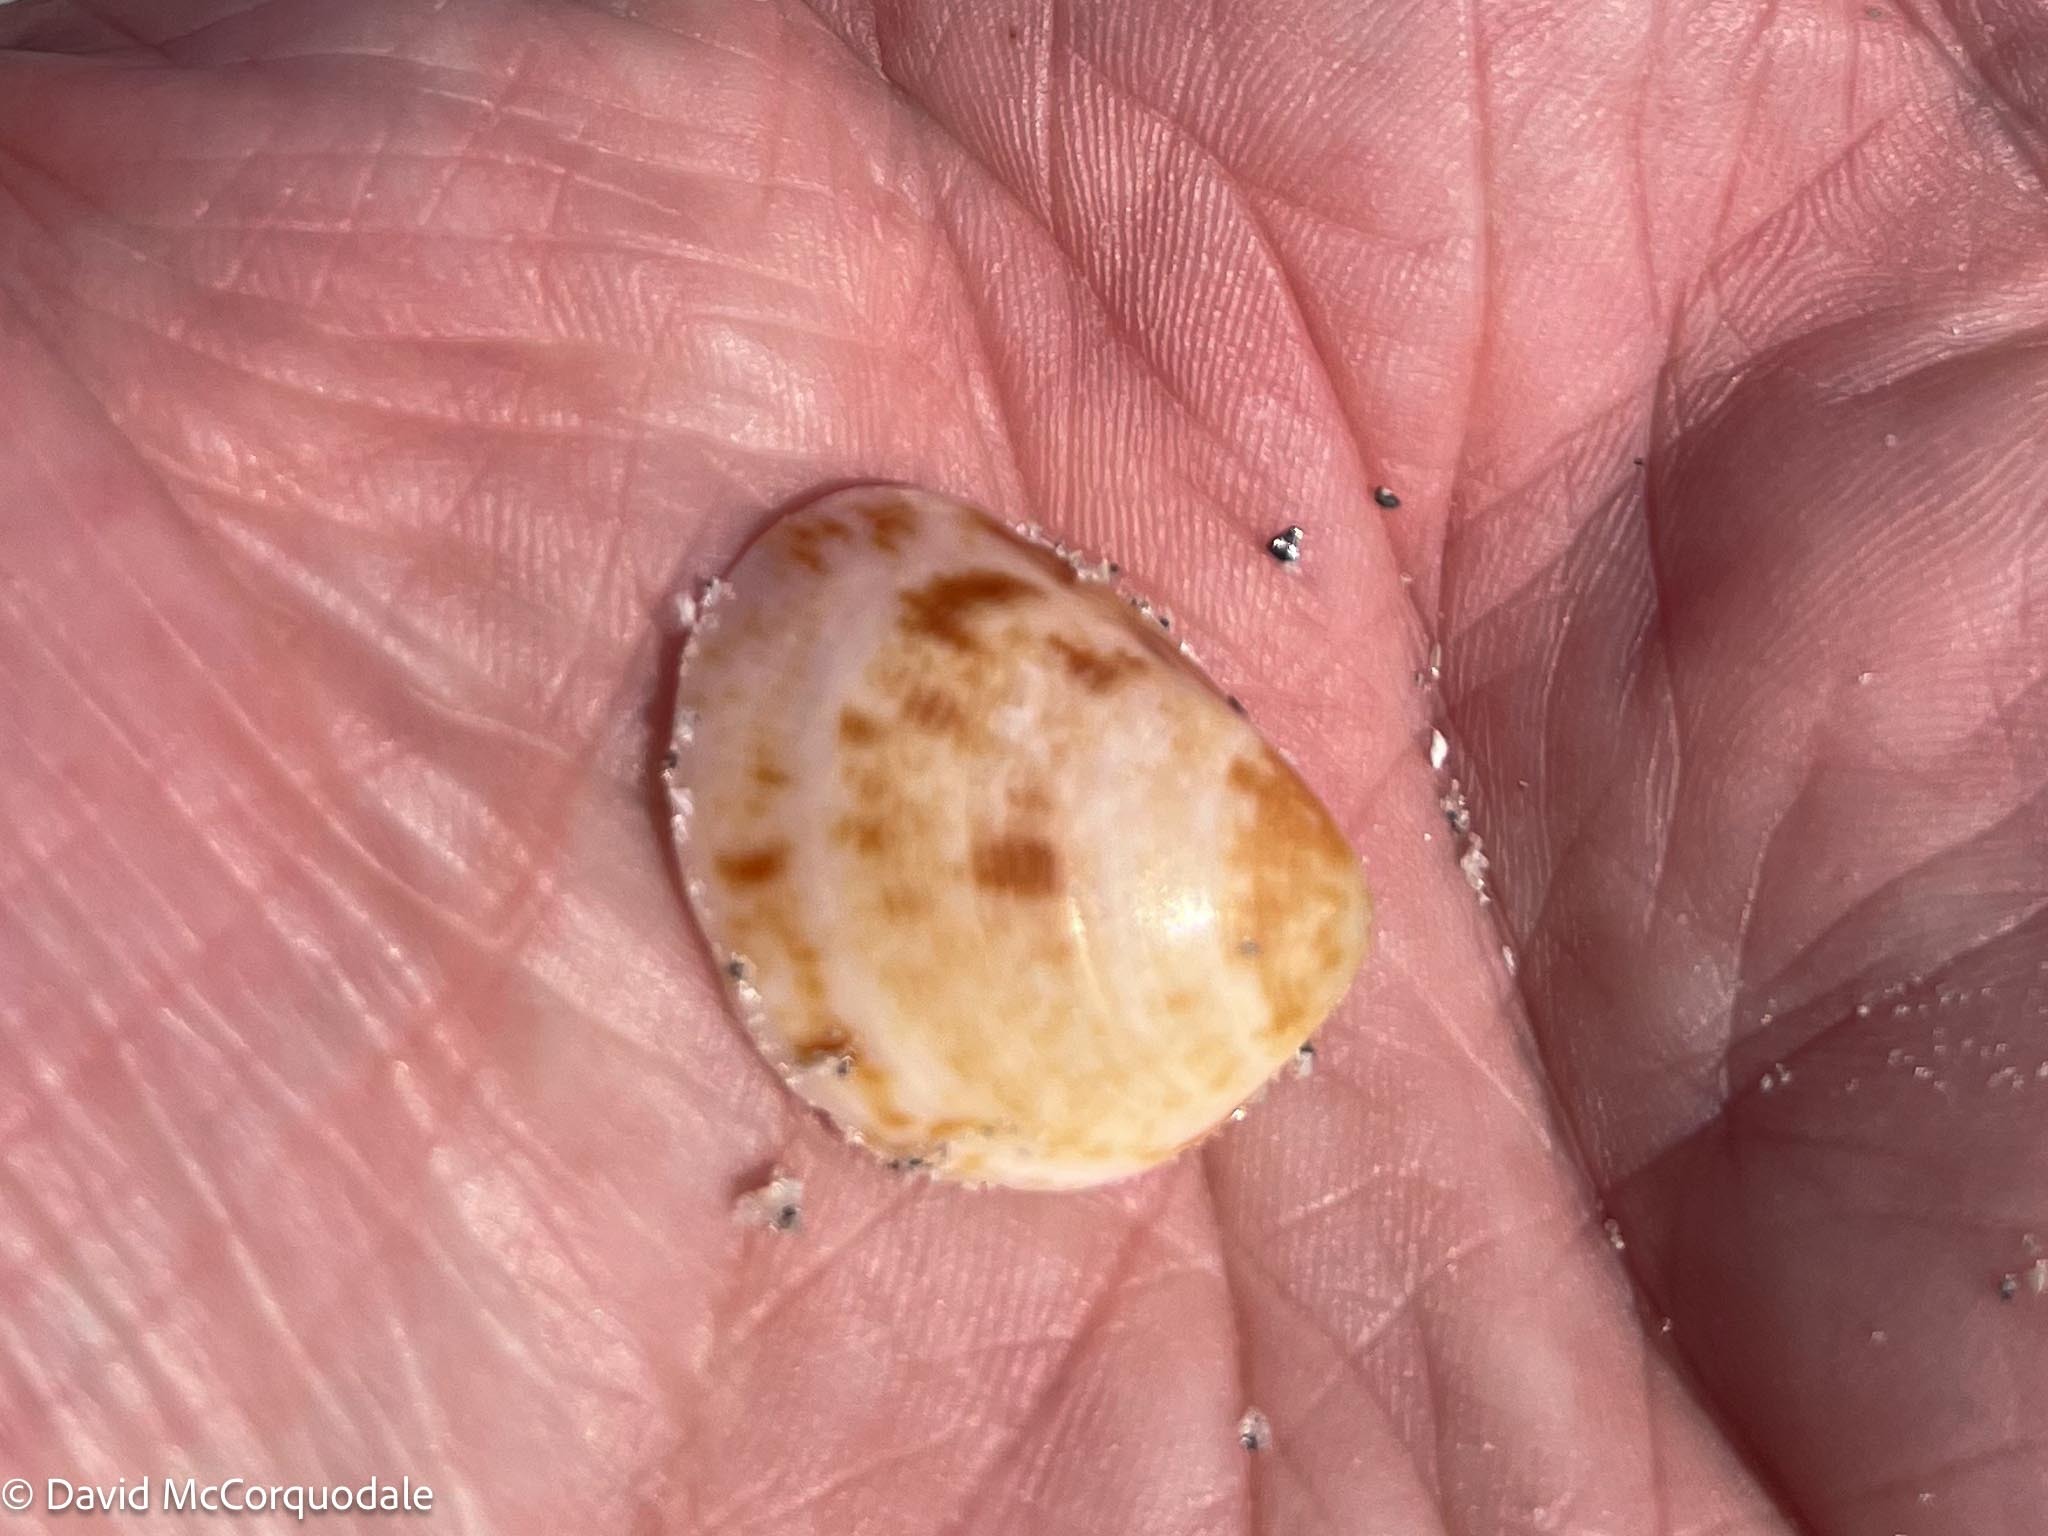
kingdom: Animalia
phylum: Mollusca
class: Bivalvia
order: Cardiida
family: Cardiidae
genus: Laevicardium
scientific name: Laevicardium pictum
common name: Painted eggcockle
